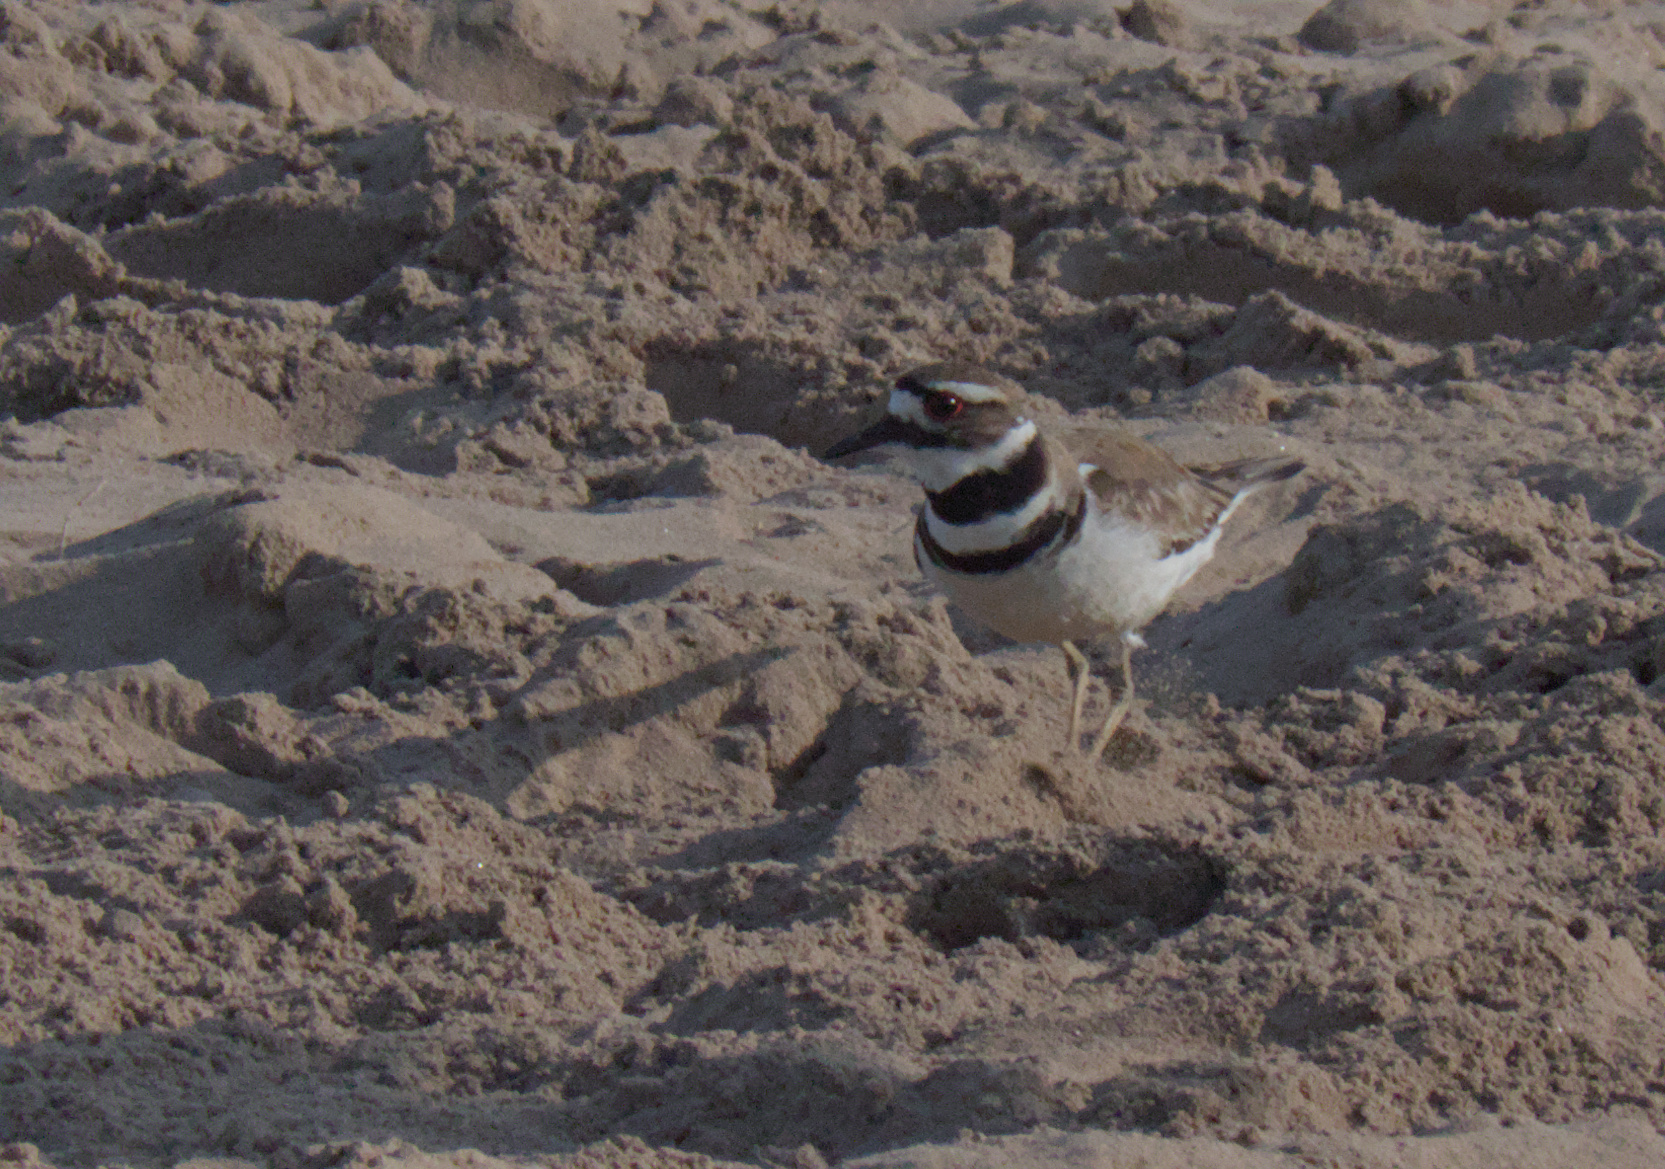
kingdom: Animalia
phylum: Chordata
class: Aves
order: Charadriiformes
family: Charadriidae
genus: Charadrius
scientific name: Charadrius vociferus
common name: Killdeer
